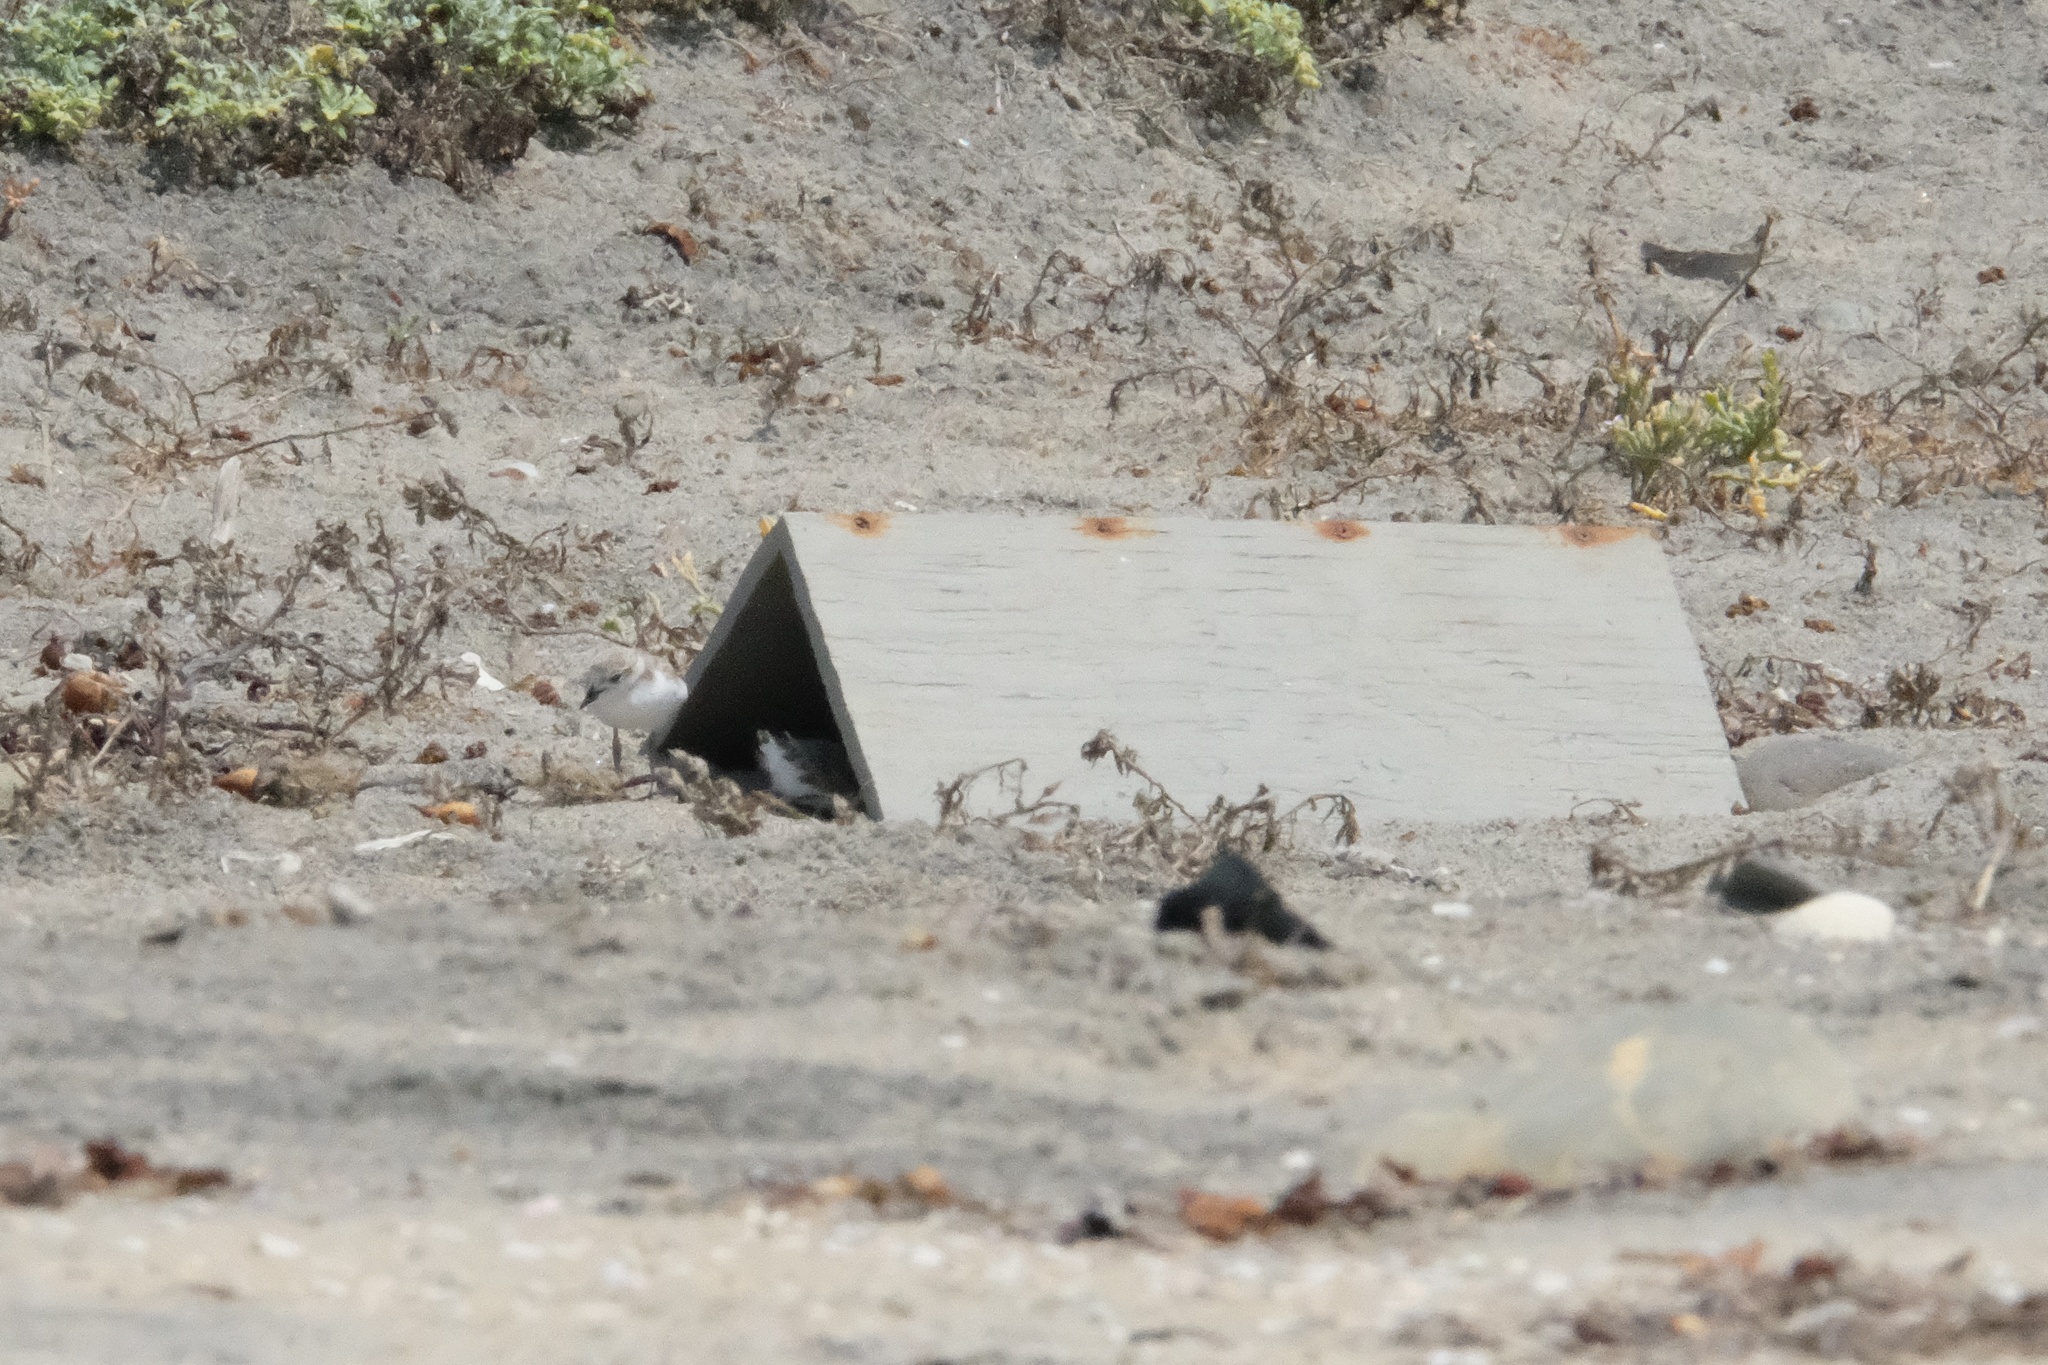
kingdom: Animalia
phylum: Chordata
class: Aves
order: Charadriiformes
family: Charadriidae
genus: Anarhynchus
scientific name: Anarhynchus
